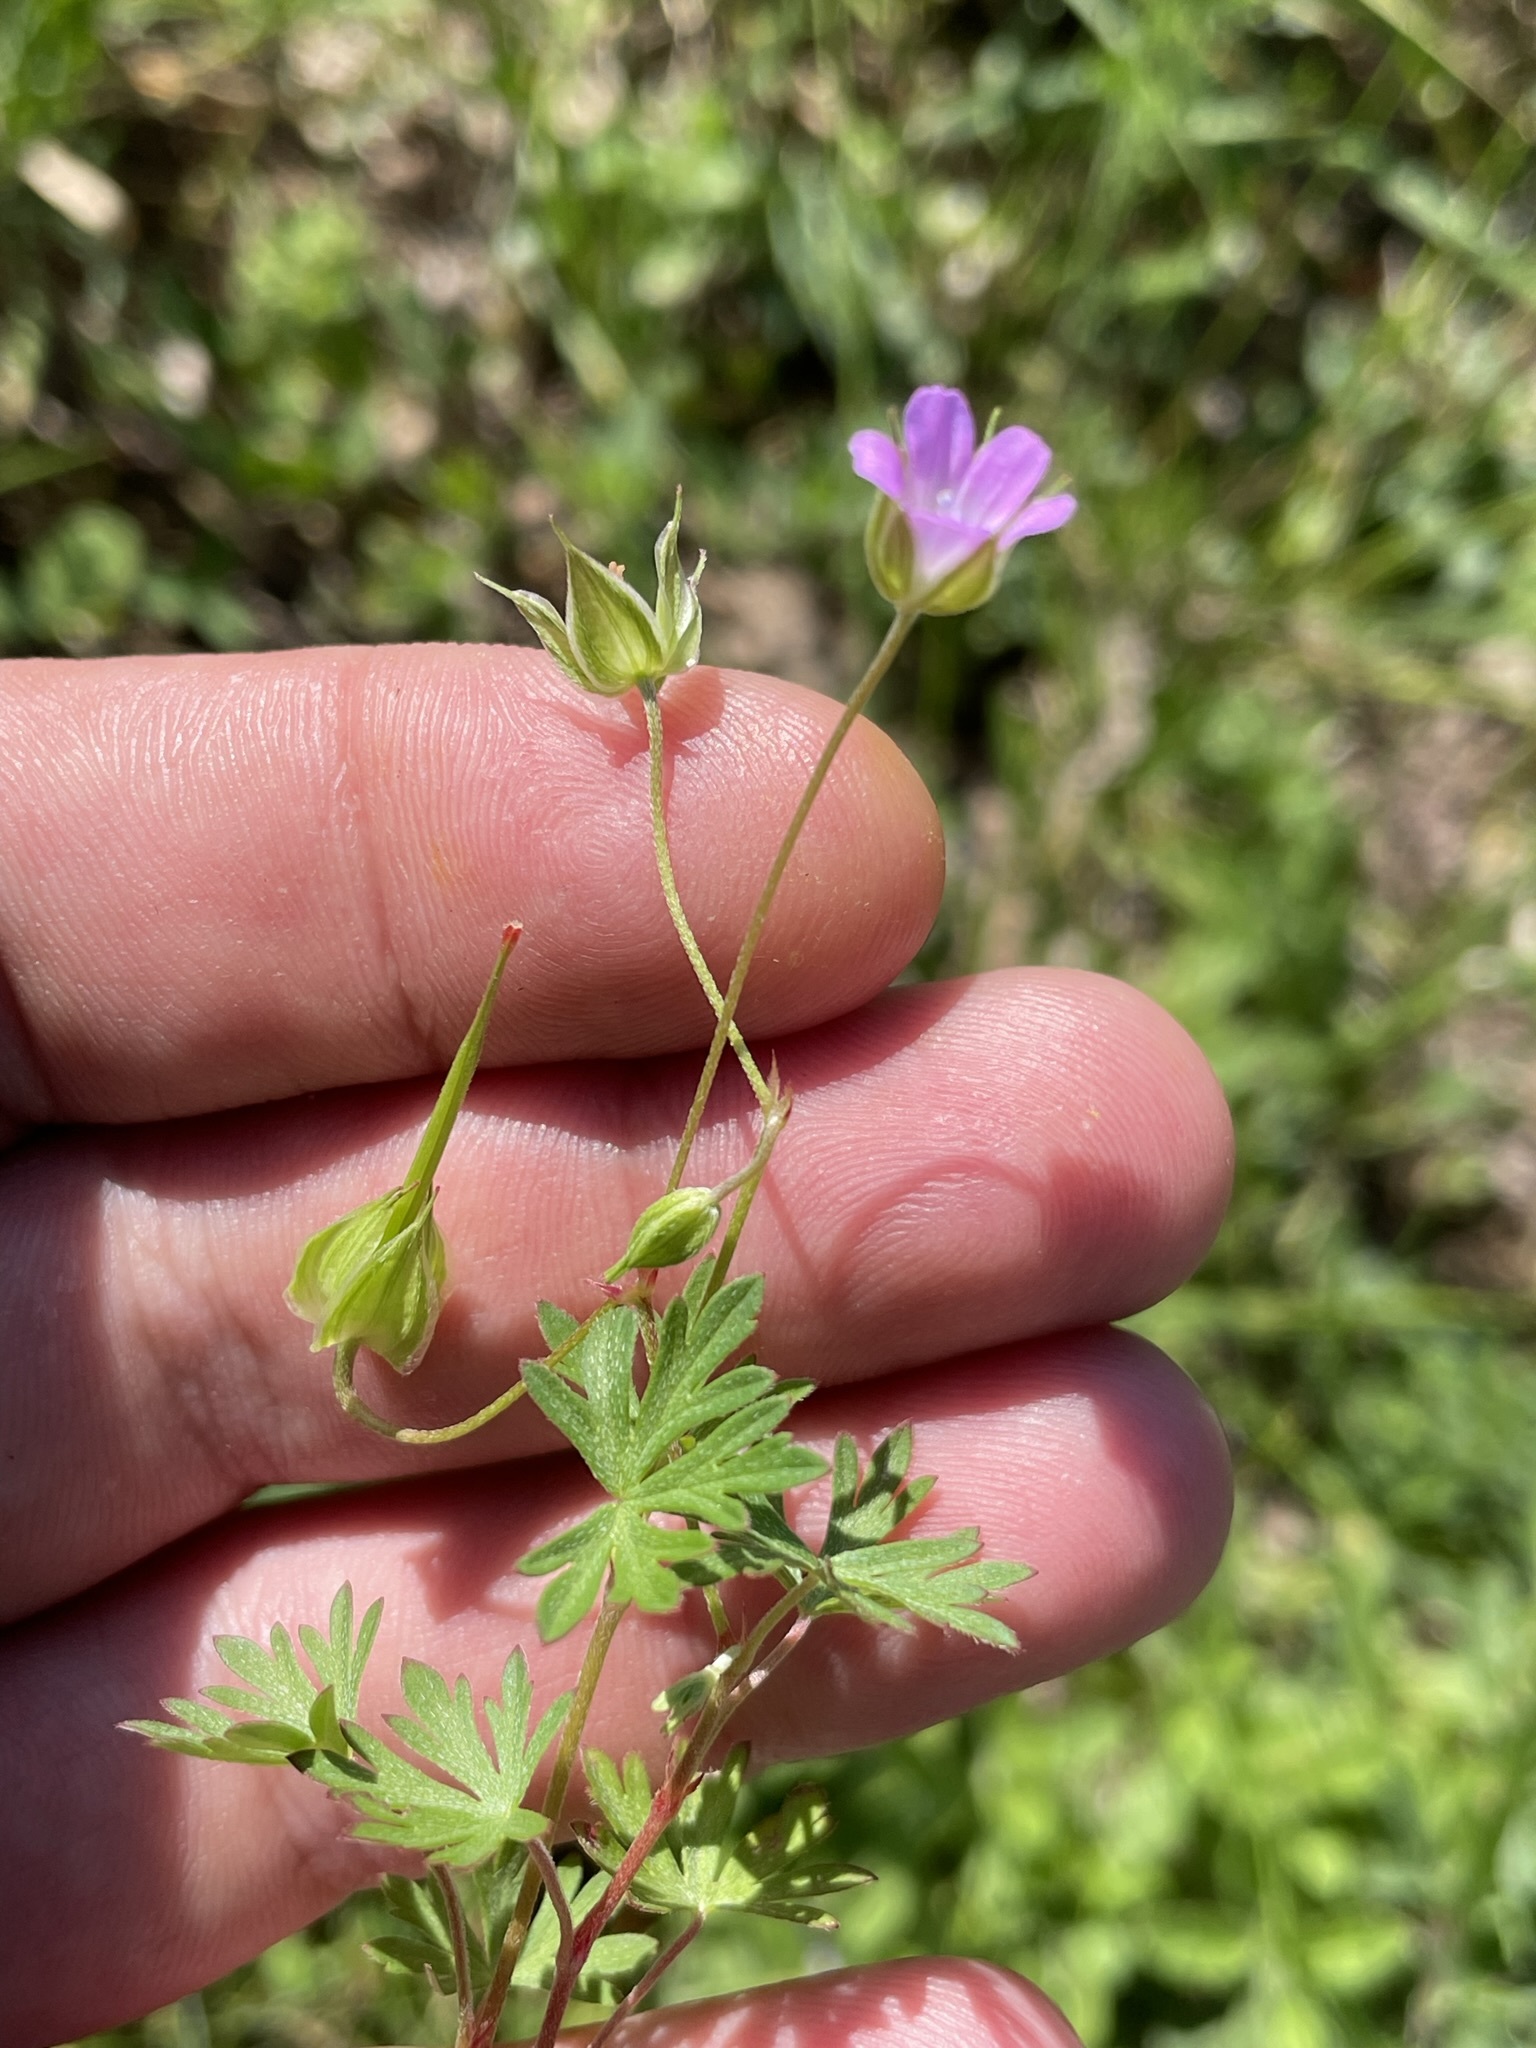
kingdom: Plantae
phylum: Tracheophyta
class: Magnoliopsida
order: Geraniales
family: Geraniaceae
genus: Geranium
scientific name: Geranium columbinum
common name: Long-stalked crane's-bill
